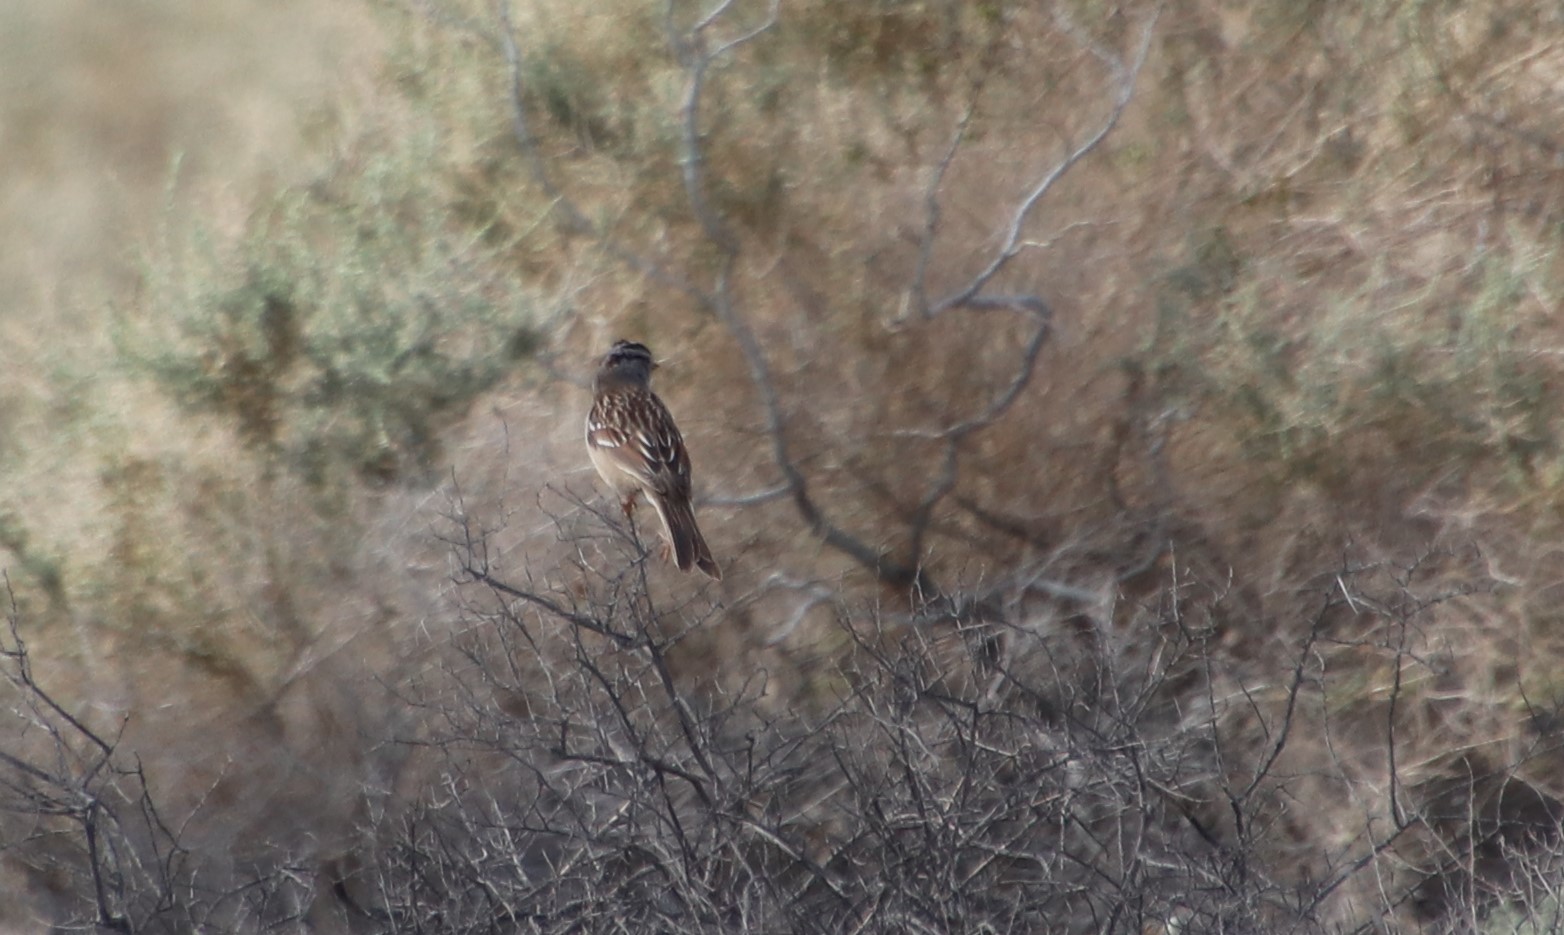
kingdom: Animalia
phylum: Chordata
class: Aves
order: Passeriformes
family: Passerellidae
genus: Zonotrichia
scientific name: Zonotrichia leucophrys
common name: White-crowned sparrow
